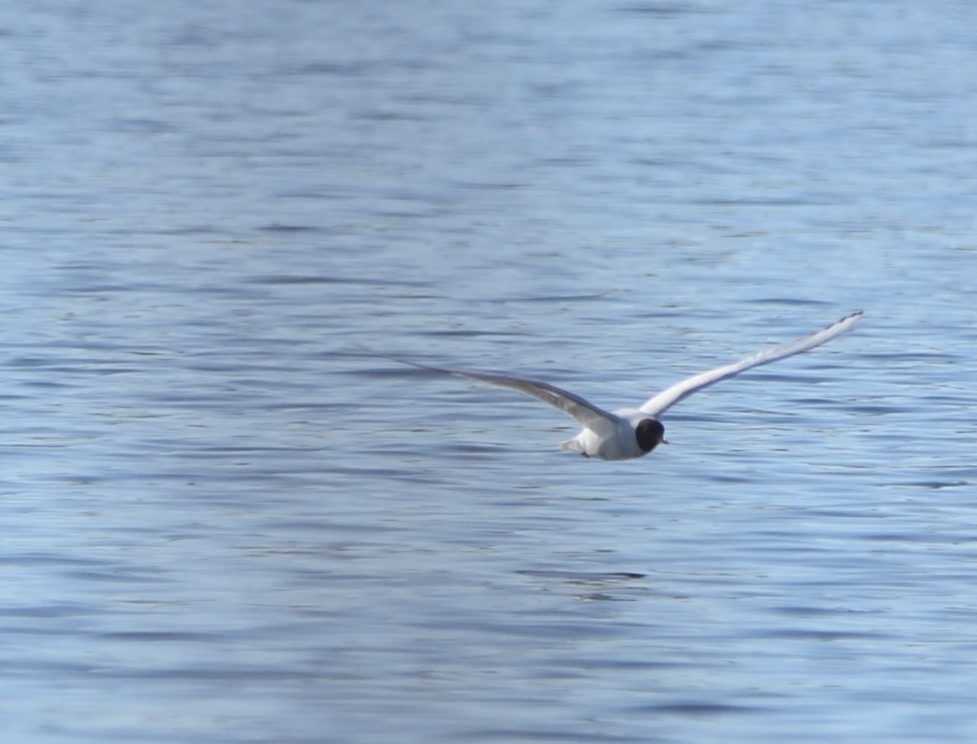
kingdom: Animalia
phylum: Chordata
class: Aves
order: Charadriiformes
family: Laridae
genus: Chroicocephalus
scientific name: Chroicocephalus ridibundus
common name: Black-headed gull
